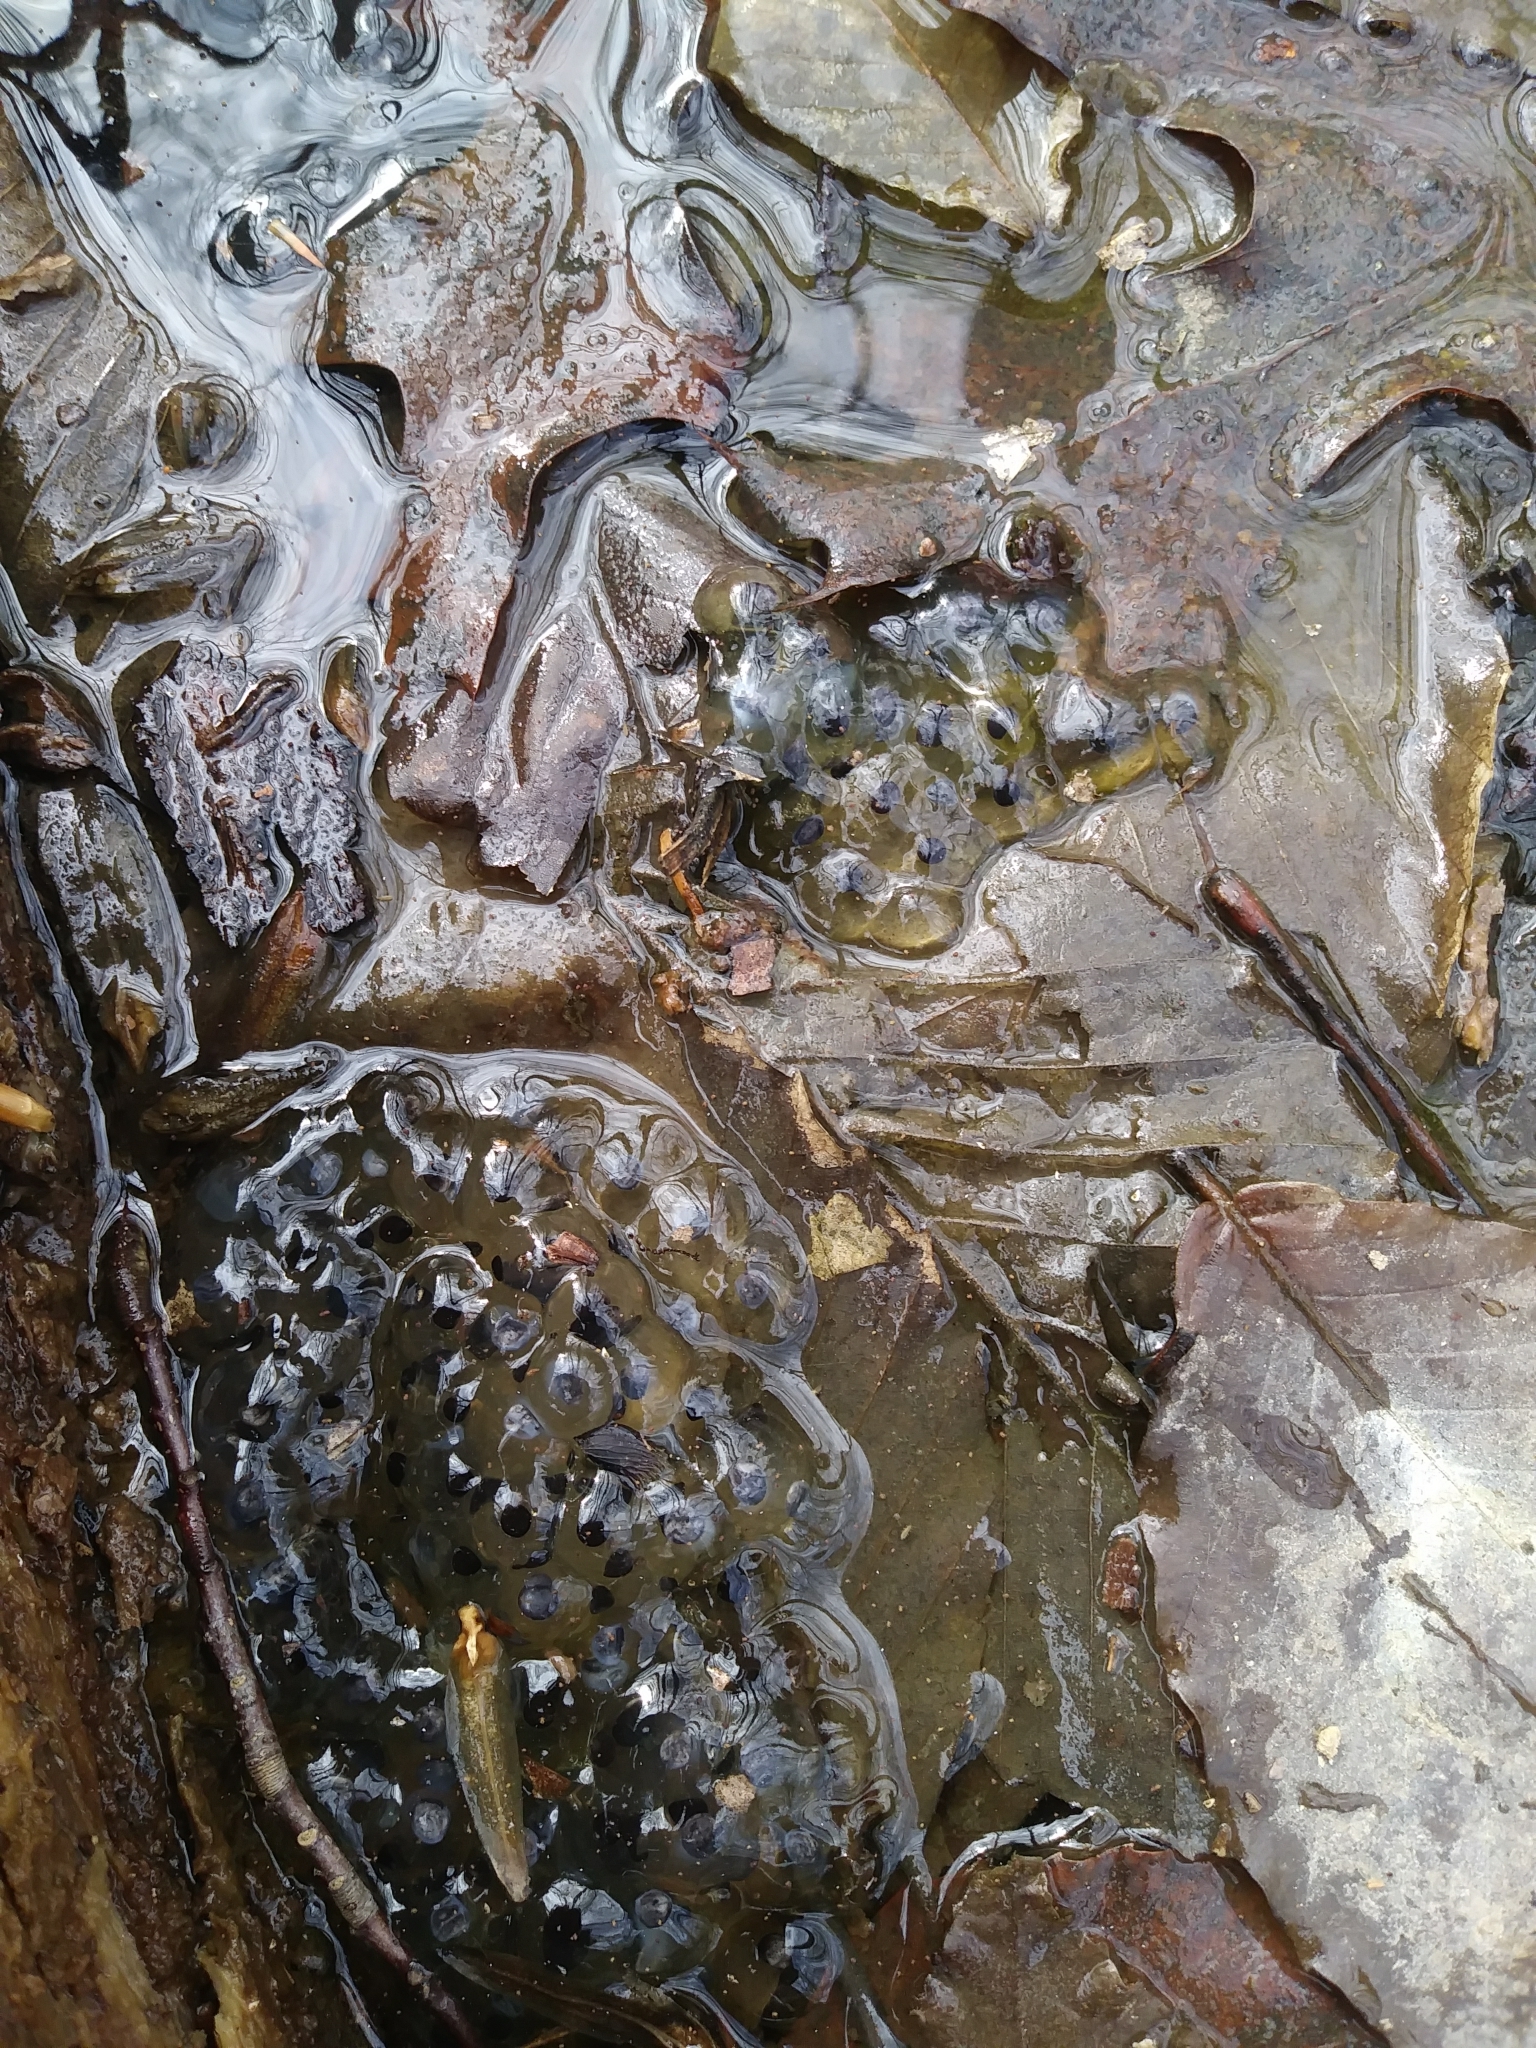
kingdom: Animalia
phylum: Chordata
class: Amphibia
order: Anura
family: Ranidae
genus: Lithobates
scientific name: Lithobates
